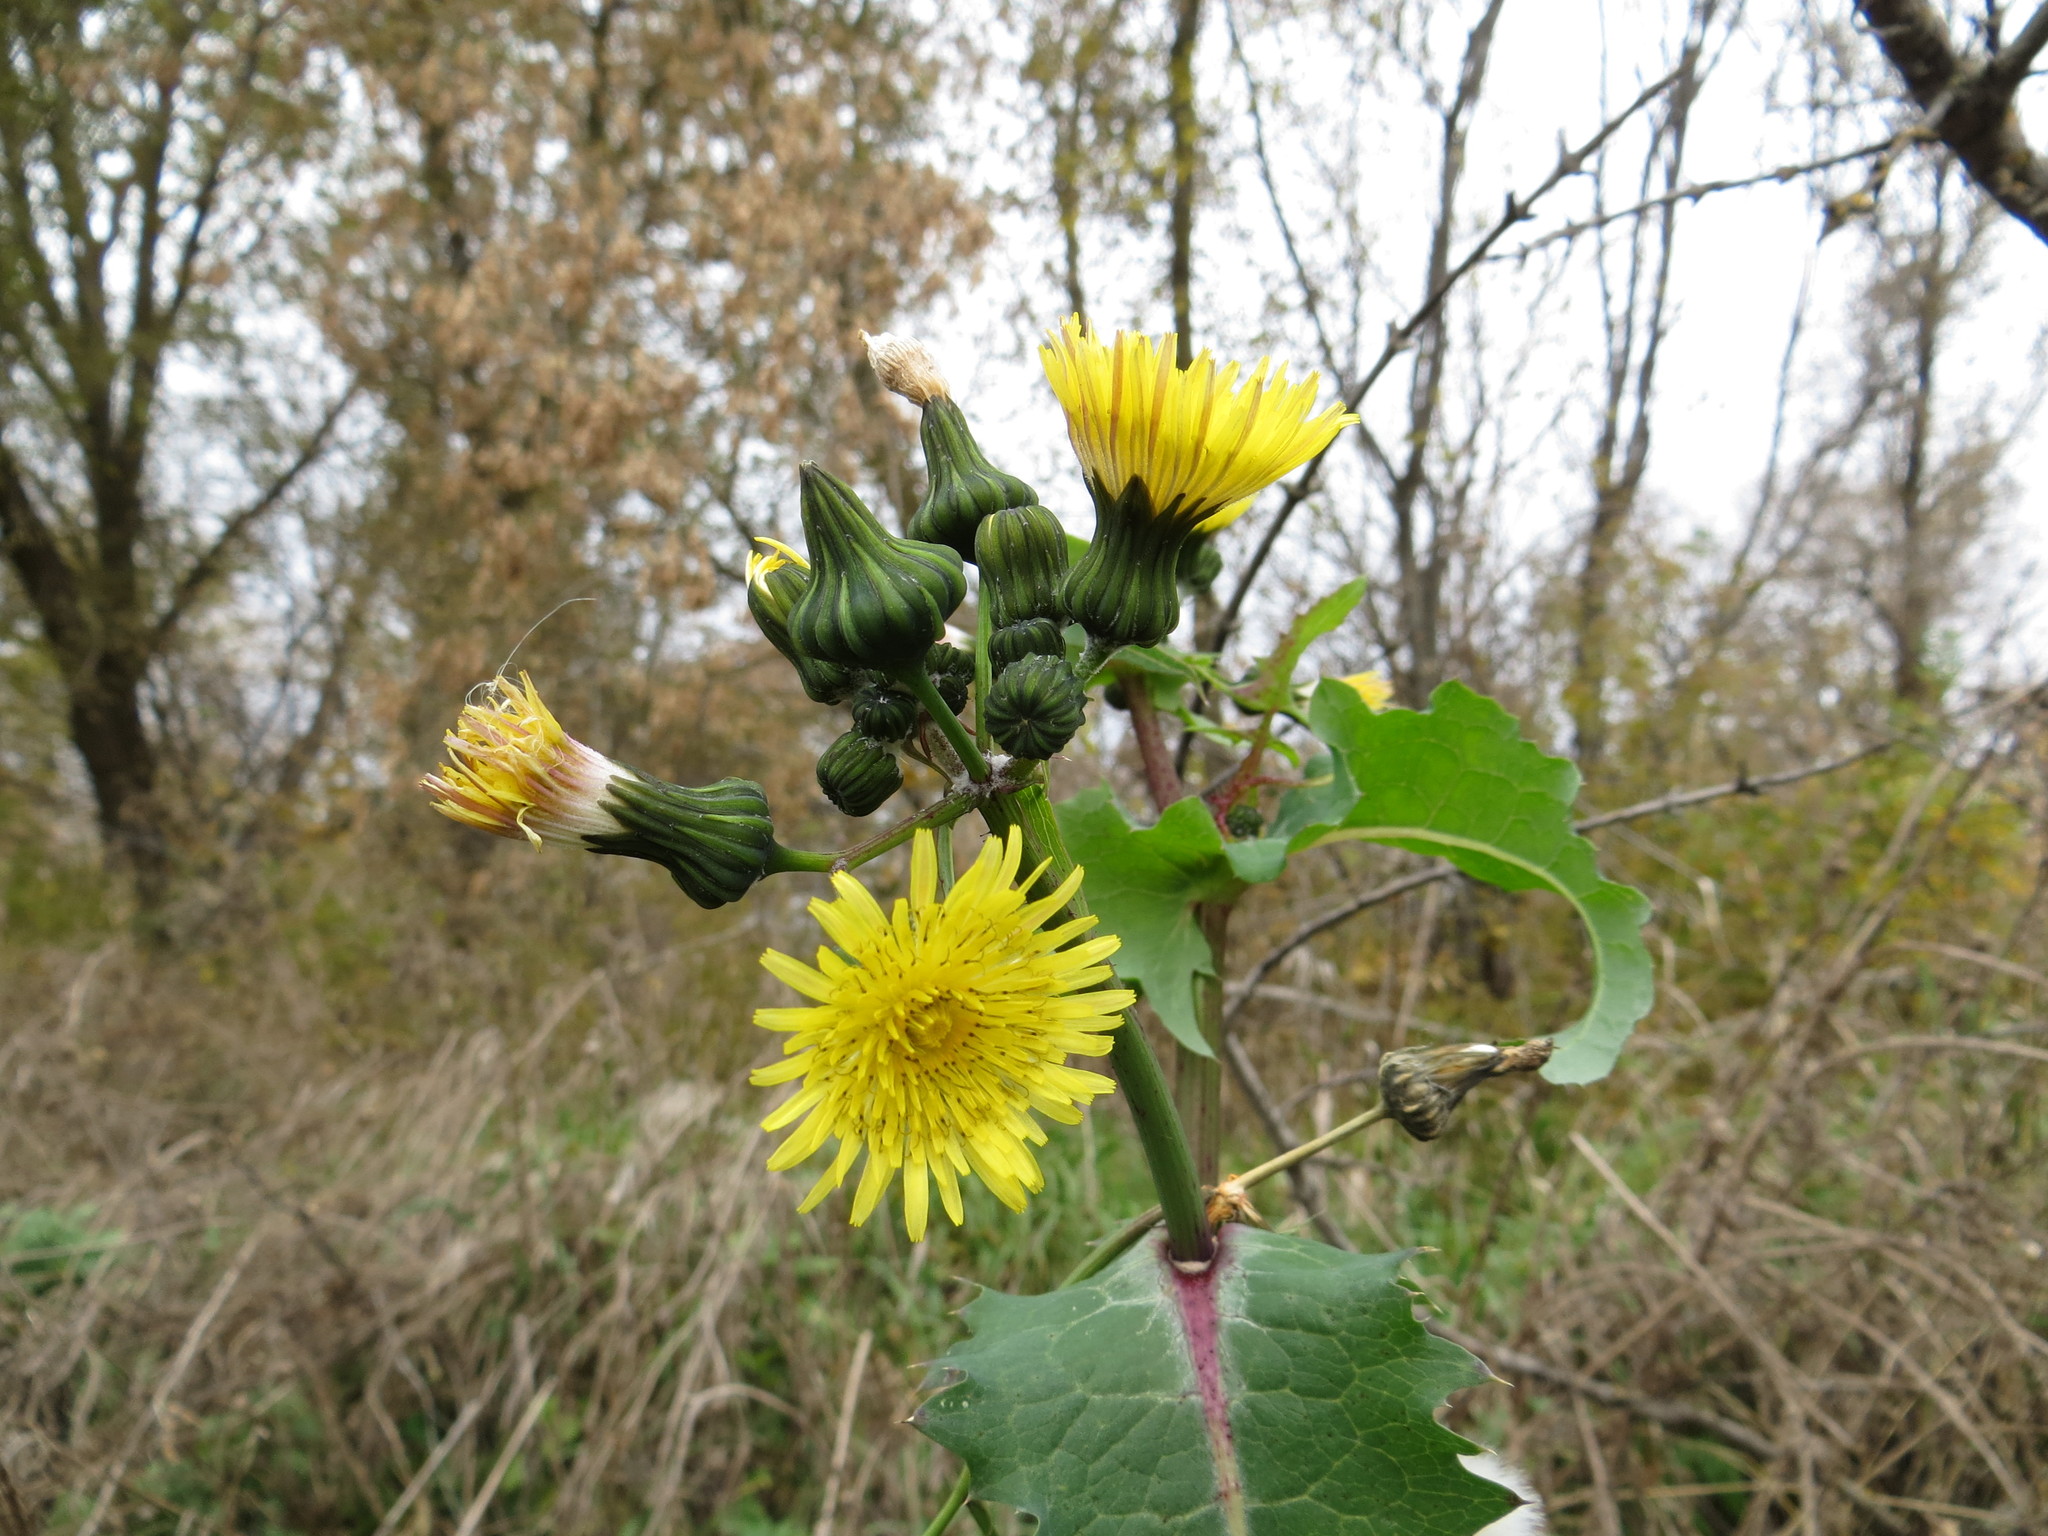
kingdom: Plantae
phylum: Tracheophyta
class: Magnoliopsida
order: Asterales
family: Asteraceae
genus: Sonchus
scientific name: Sonchus oleraceus
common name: Common sowthistle
